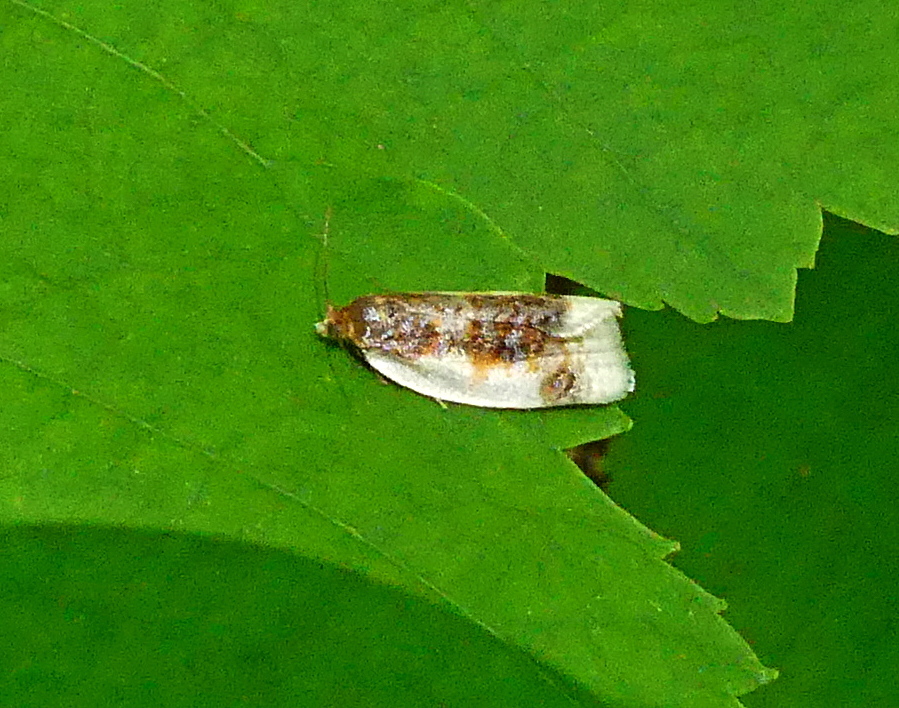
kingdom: Animalia
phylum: Arthropoda
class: Insecta
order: Lepidoptera
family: Tortricidae
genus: Clepsis
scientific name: Clepsis melaleucanus
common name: American apple tortrix
